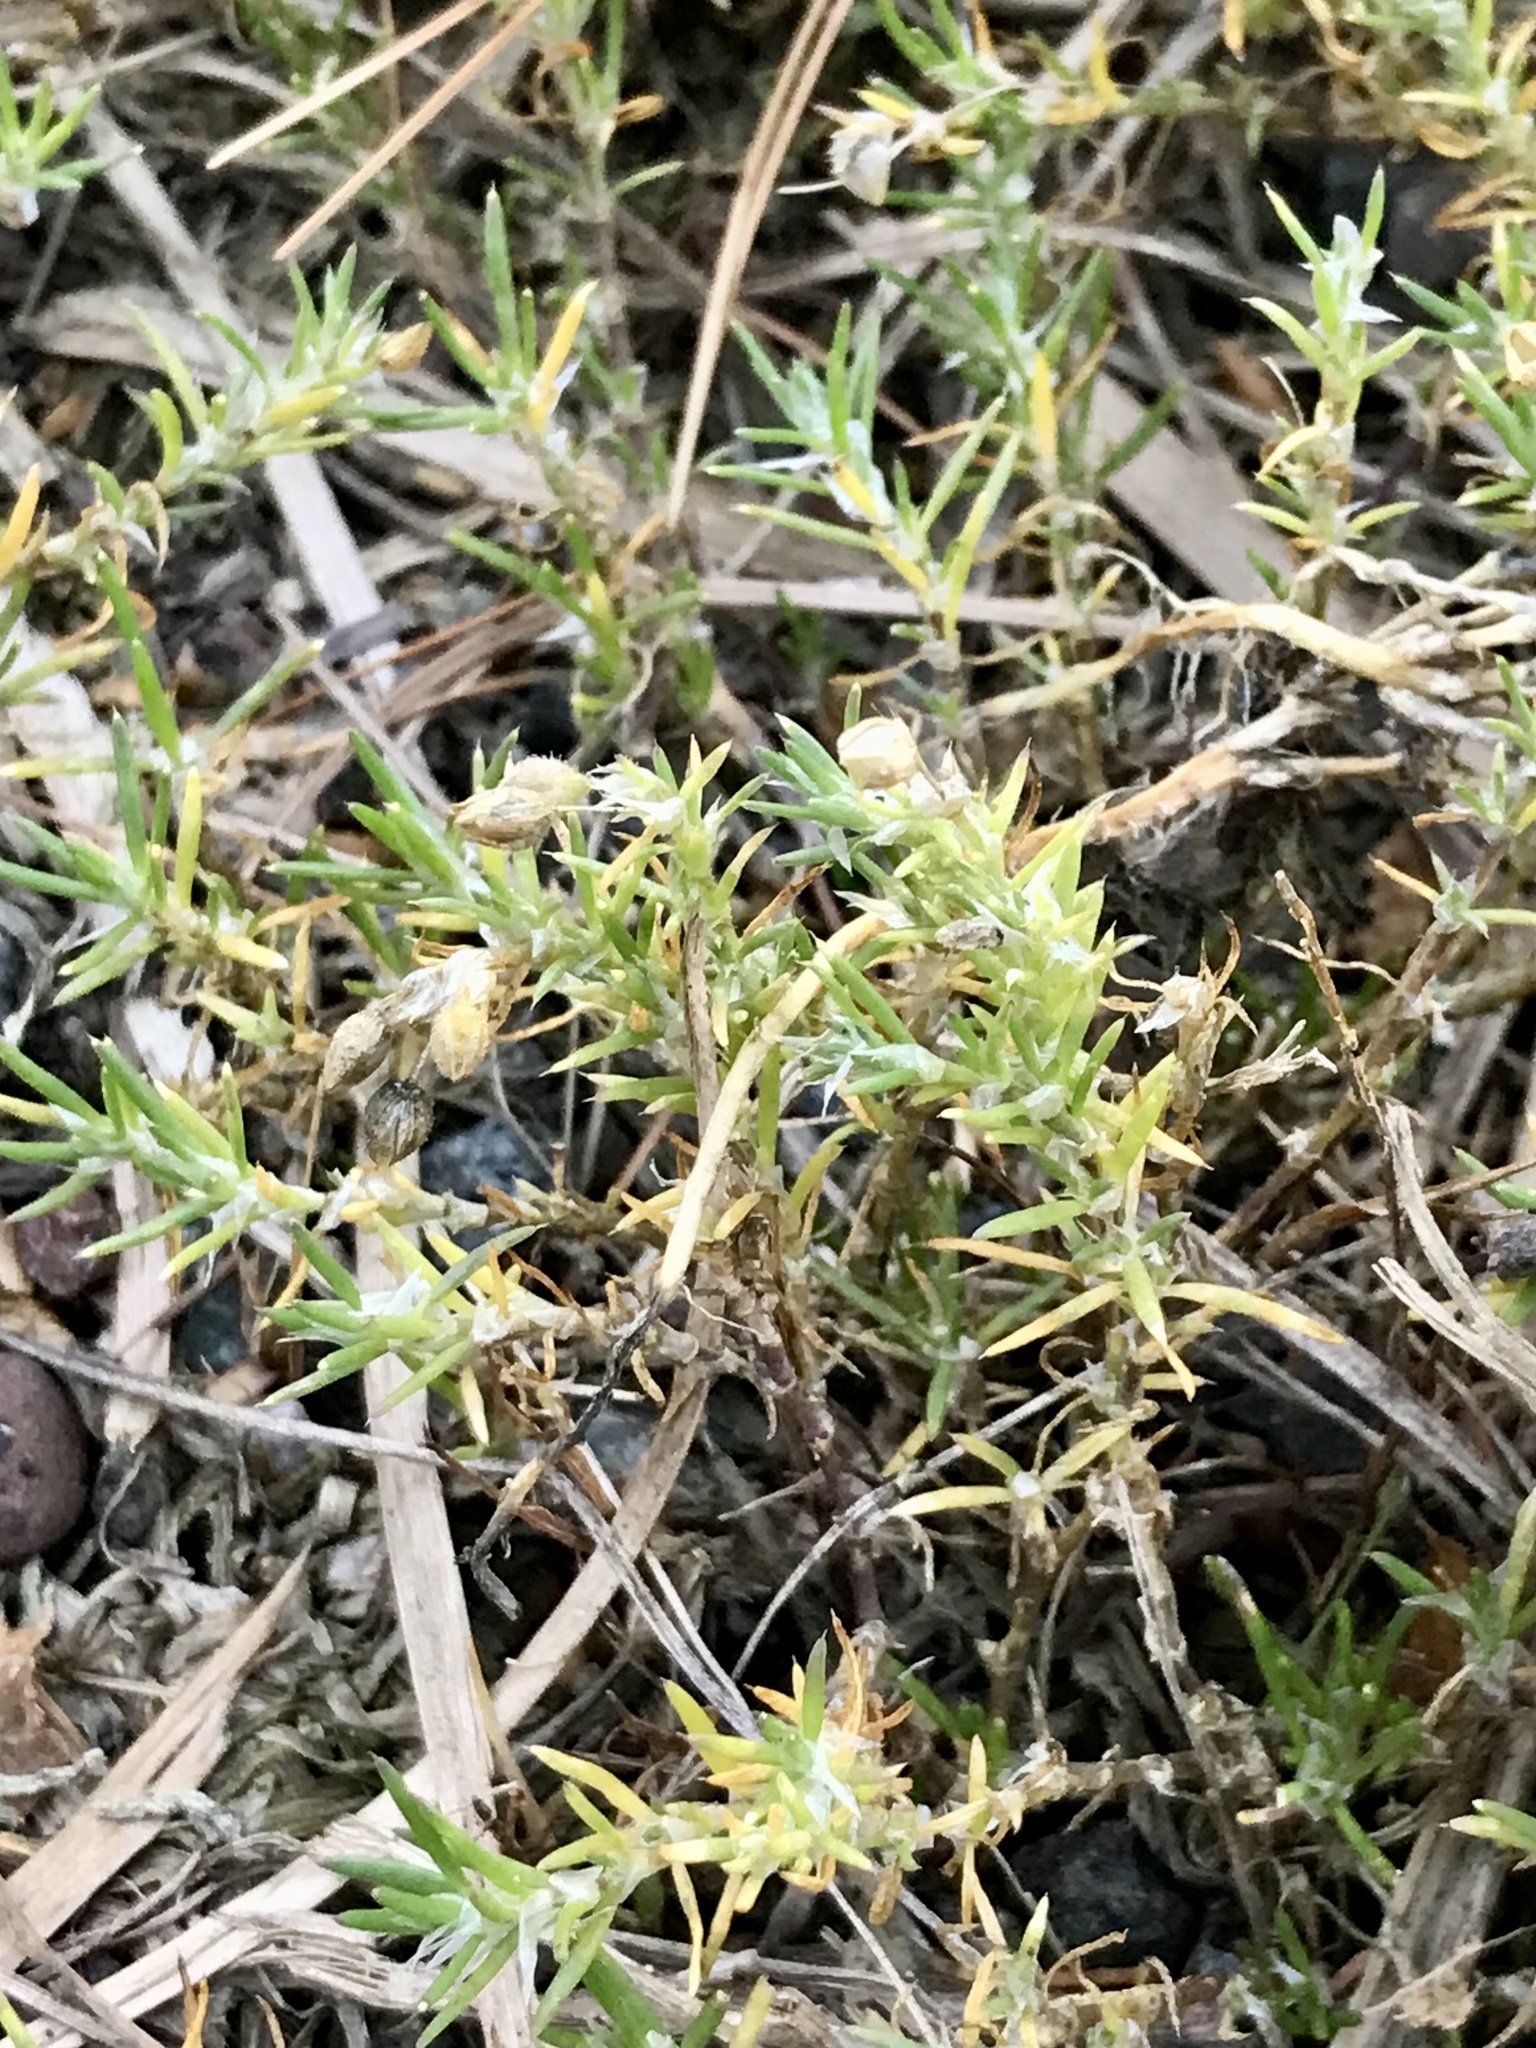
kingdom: Plantae
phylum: Tracheophyta
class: Magnoliopsida
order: Caryophyllales
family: Caryophyllaceae
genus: Spergularia
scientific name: Spergularia rubra
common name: Red sand-spurrey
